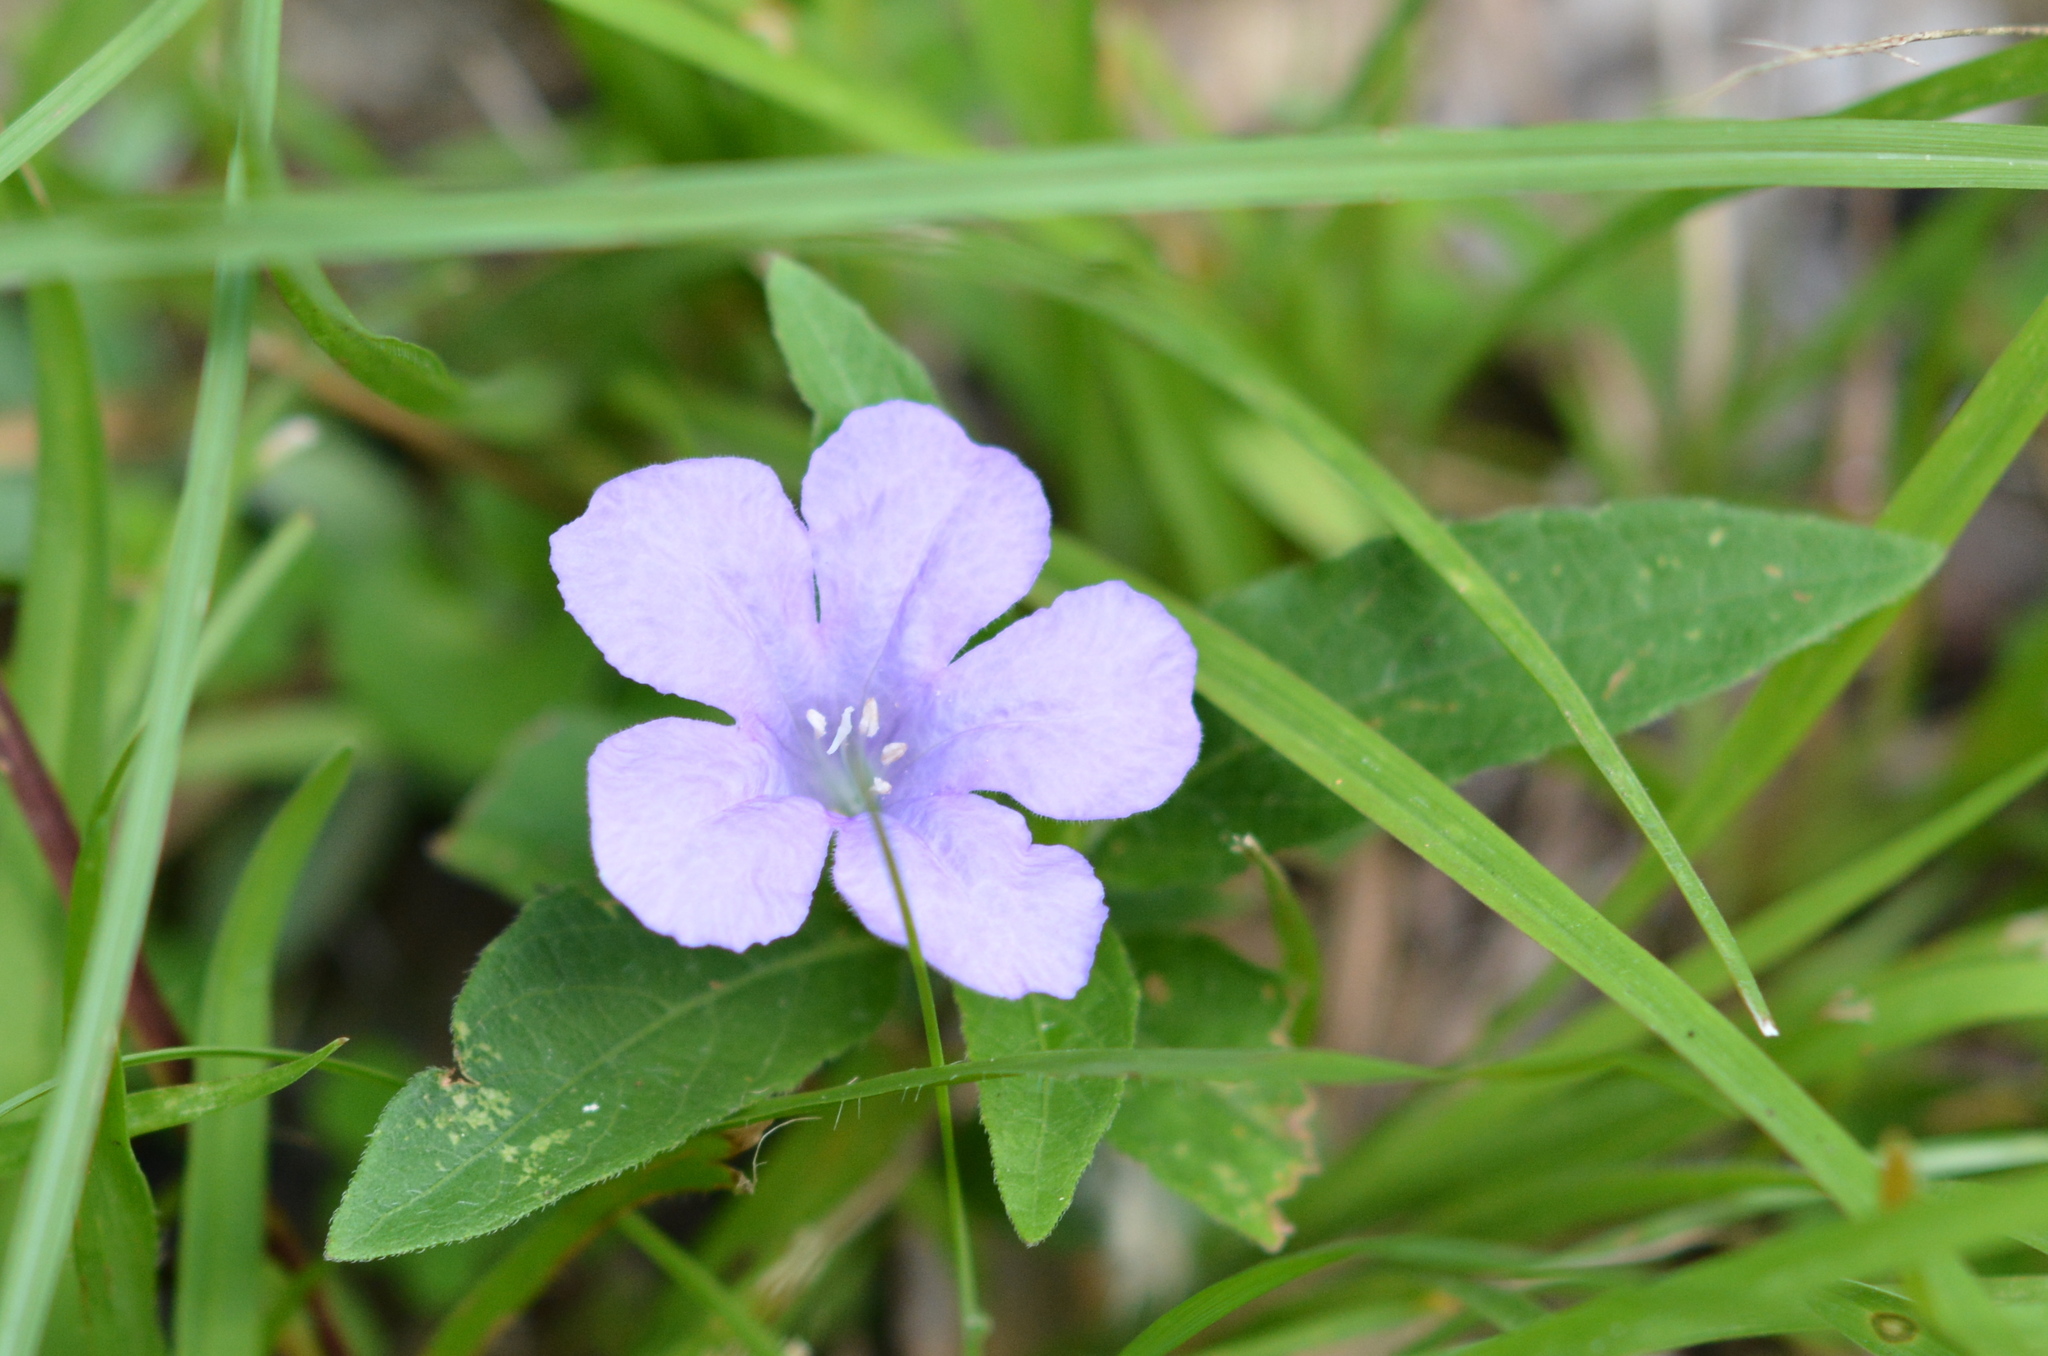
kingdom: Plantae
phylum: Tracheophyta
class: Magnoliopsida
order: Lamiales
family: Acanthaceae
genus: Ruellia
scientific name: Ruellia caroliniensis
